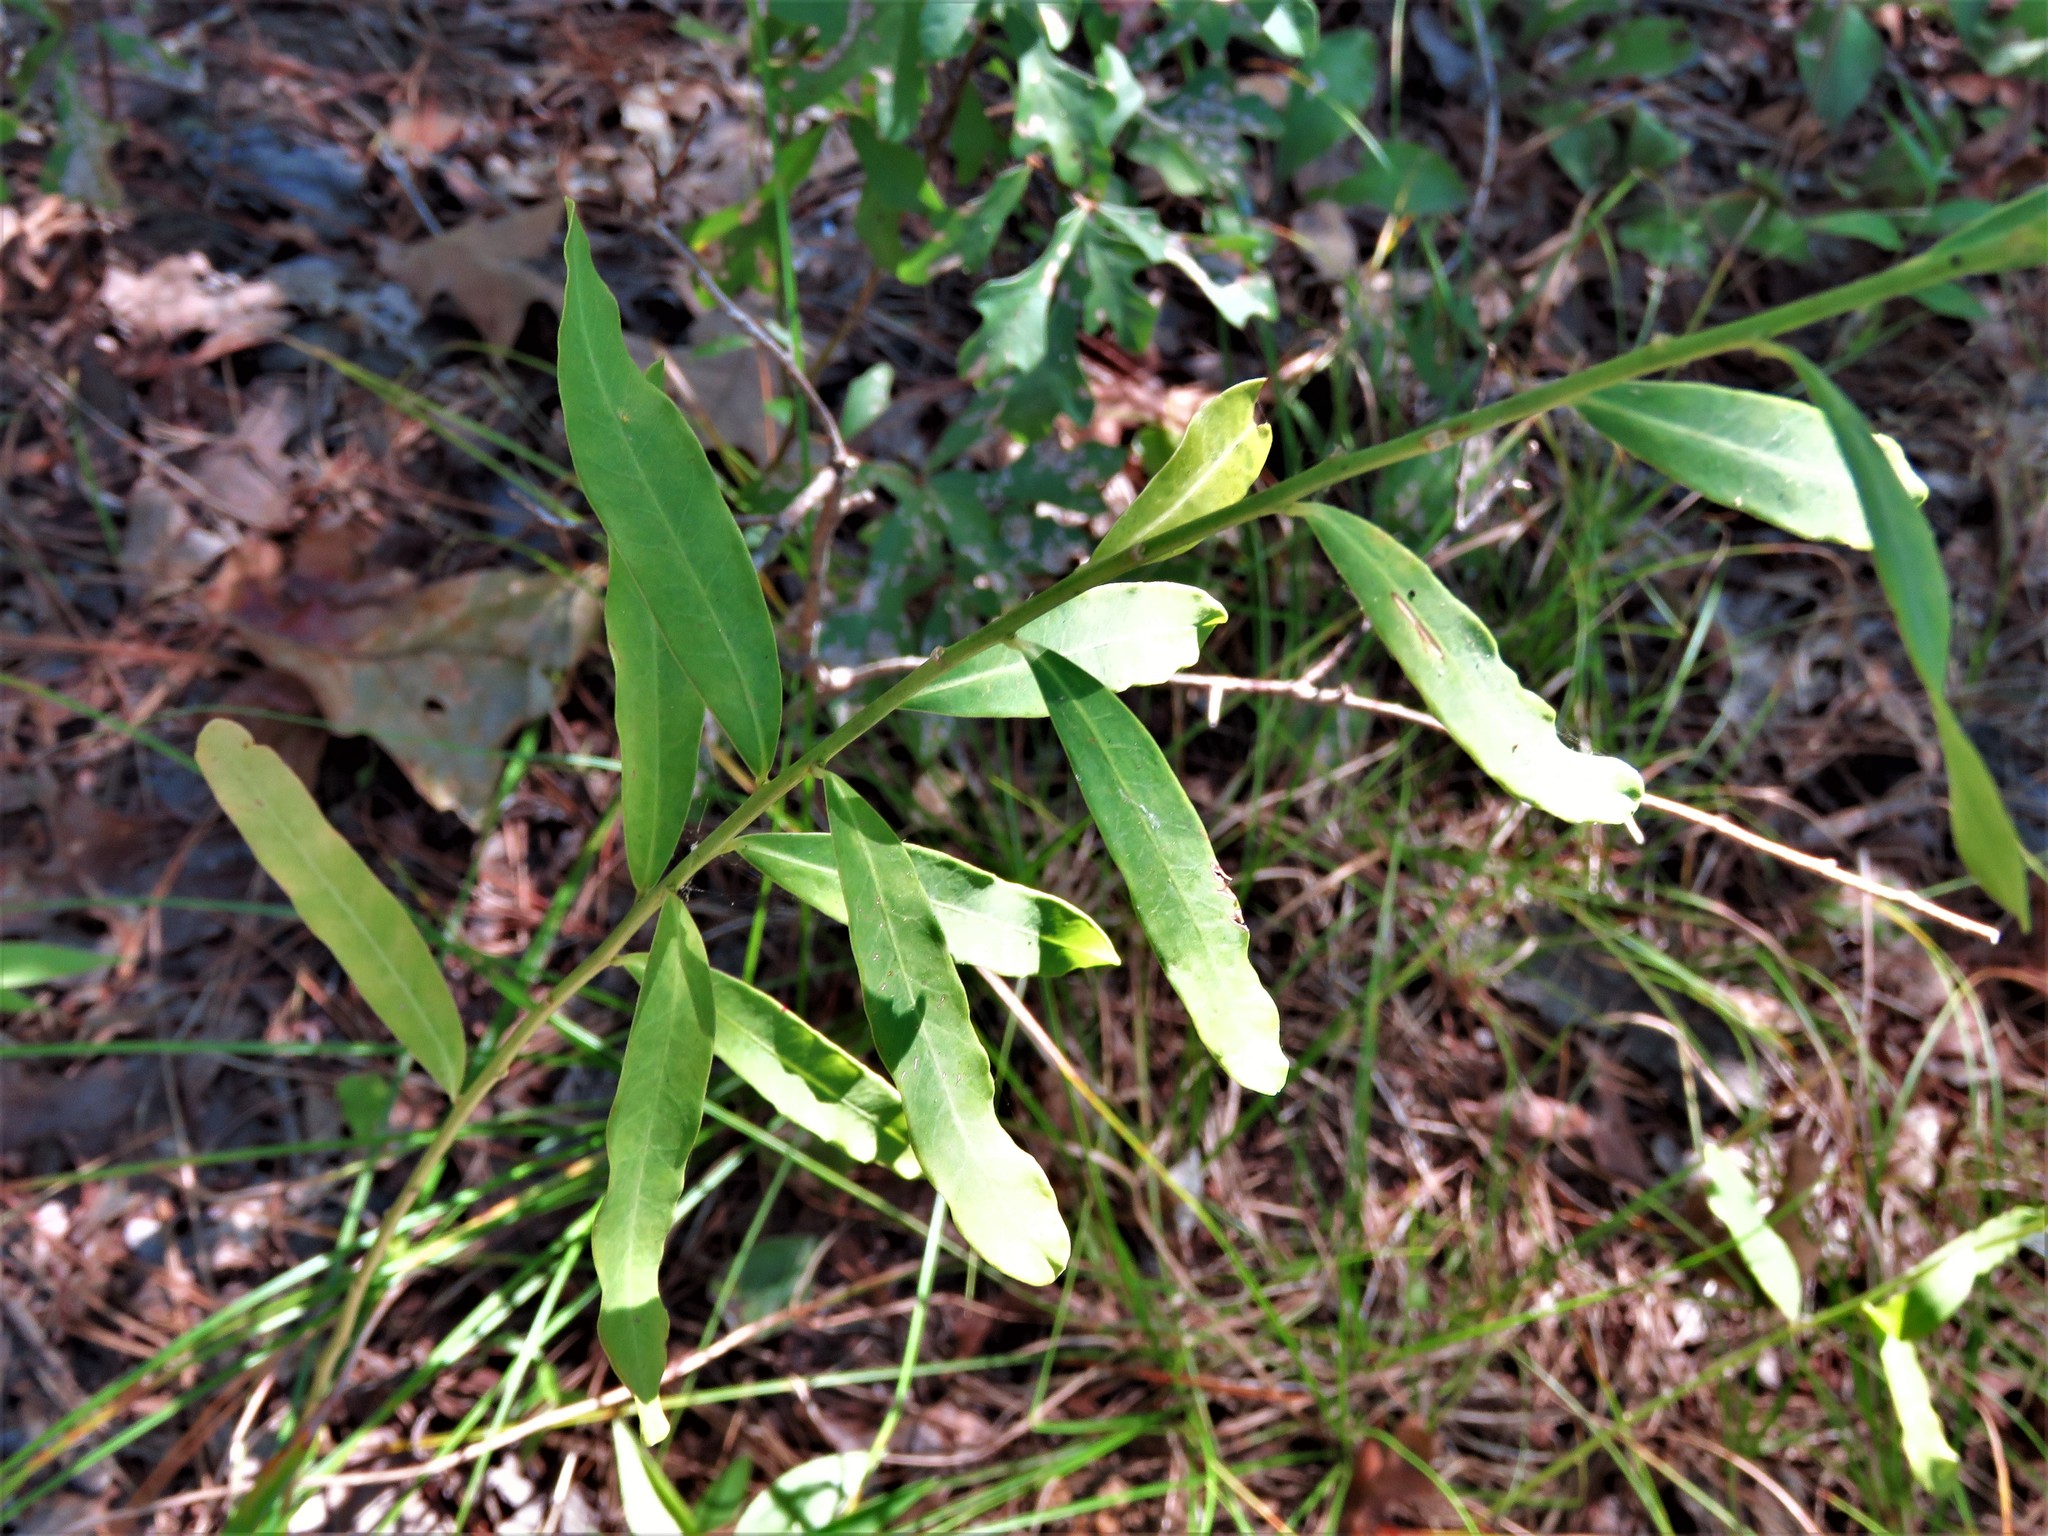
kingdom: Plantae
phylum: Tracheophyta
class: Magnoliopsida
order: Malpighiales
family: Euphorbiaceae
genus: Euphorbia
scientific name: Euphorbia corollata
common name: Flowering spurge
